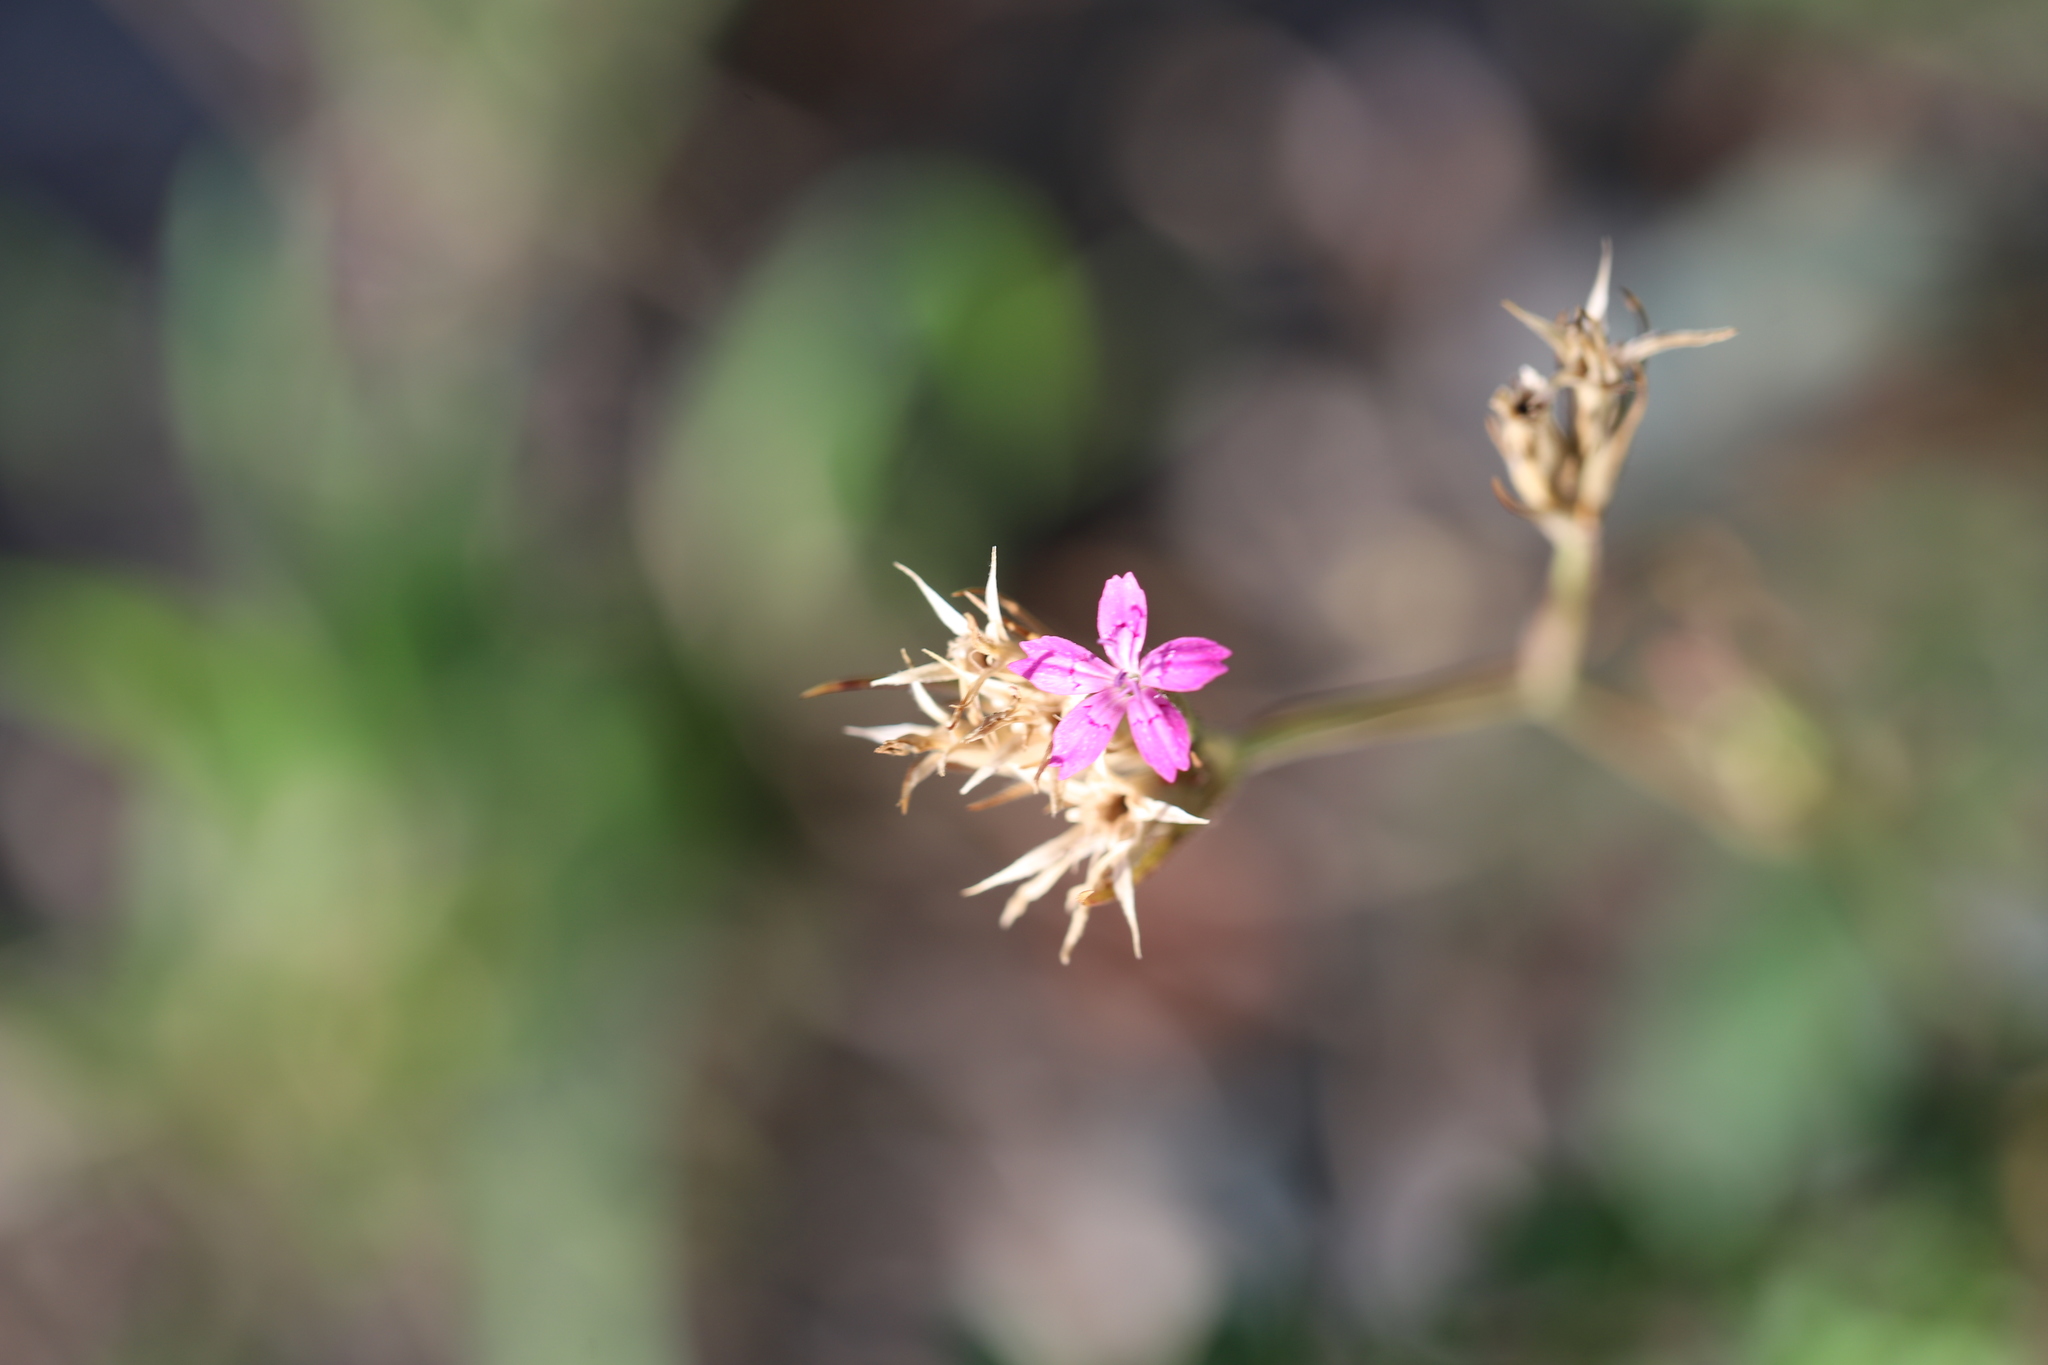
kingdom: Plantae
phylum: Tracheophyta
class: Magnoliopsida
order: Caryophyllales
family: Caryophyllaceae
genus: Dianthus
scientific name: Dianthus armeria
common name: Deptford pink
